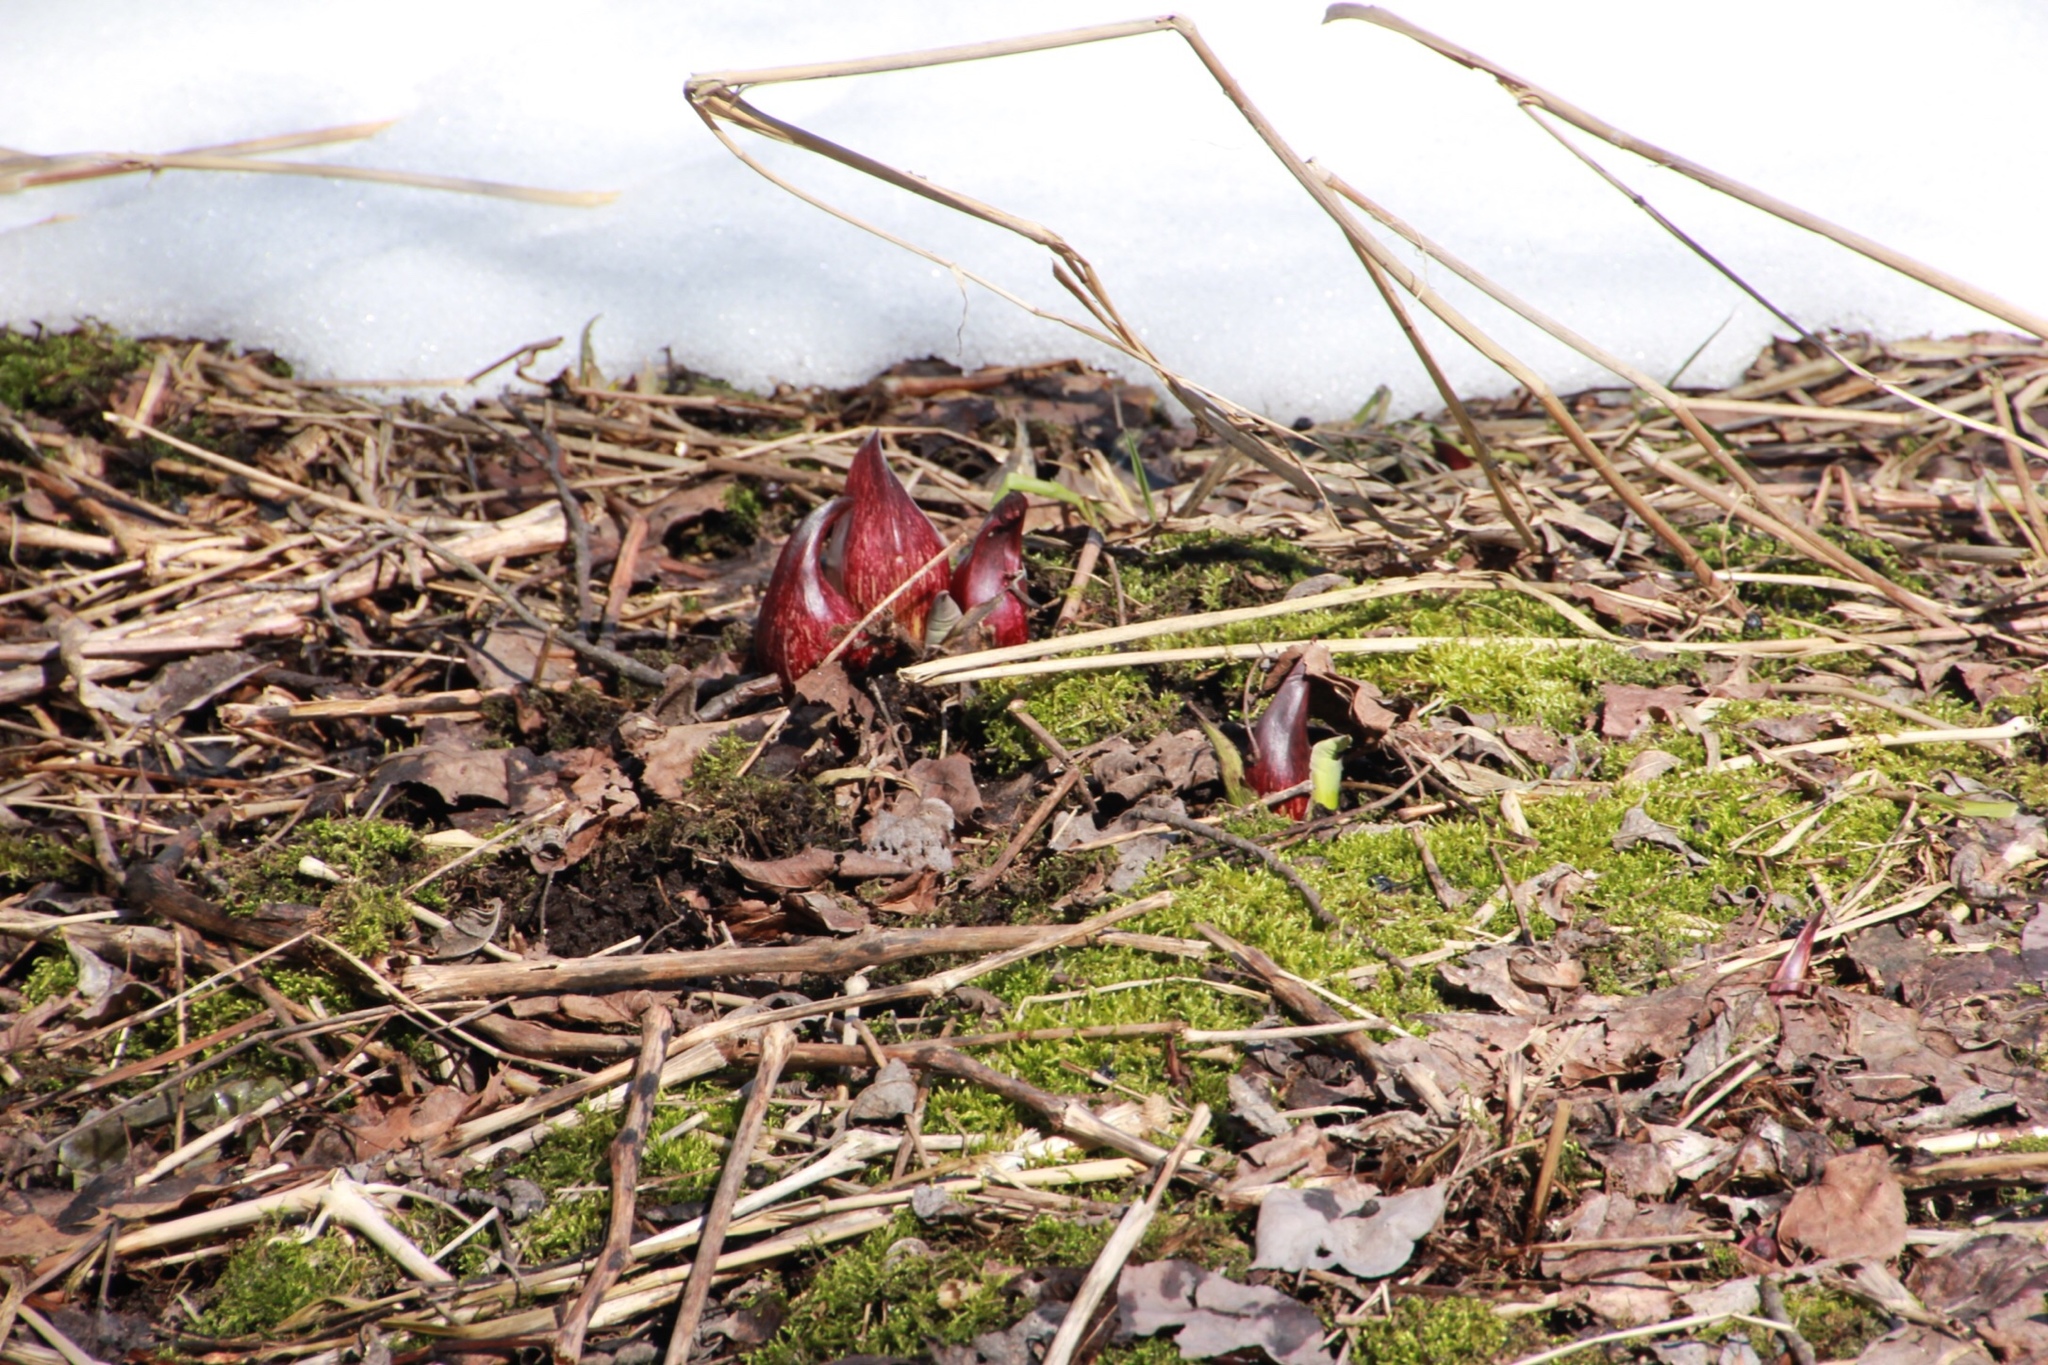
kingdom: Plantae
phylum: Tracheophyta
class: Liliopsida
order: Alismatales
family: Araceae
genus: Symplocarpus
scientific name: Symplocarpus foetidus
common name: Eastern skunk cabbage
